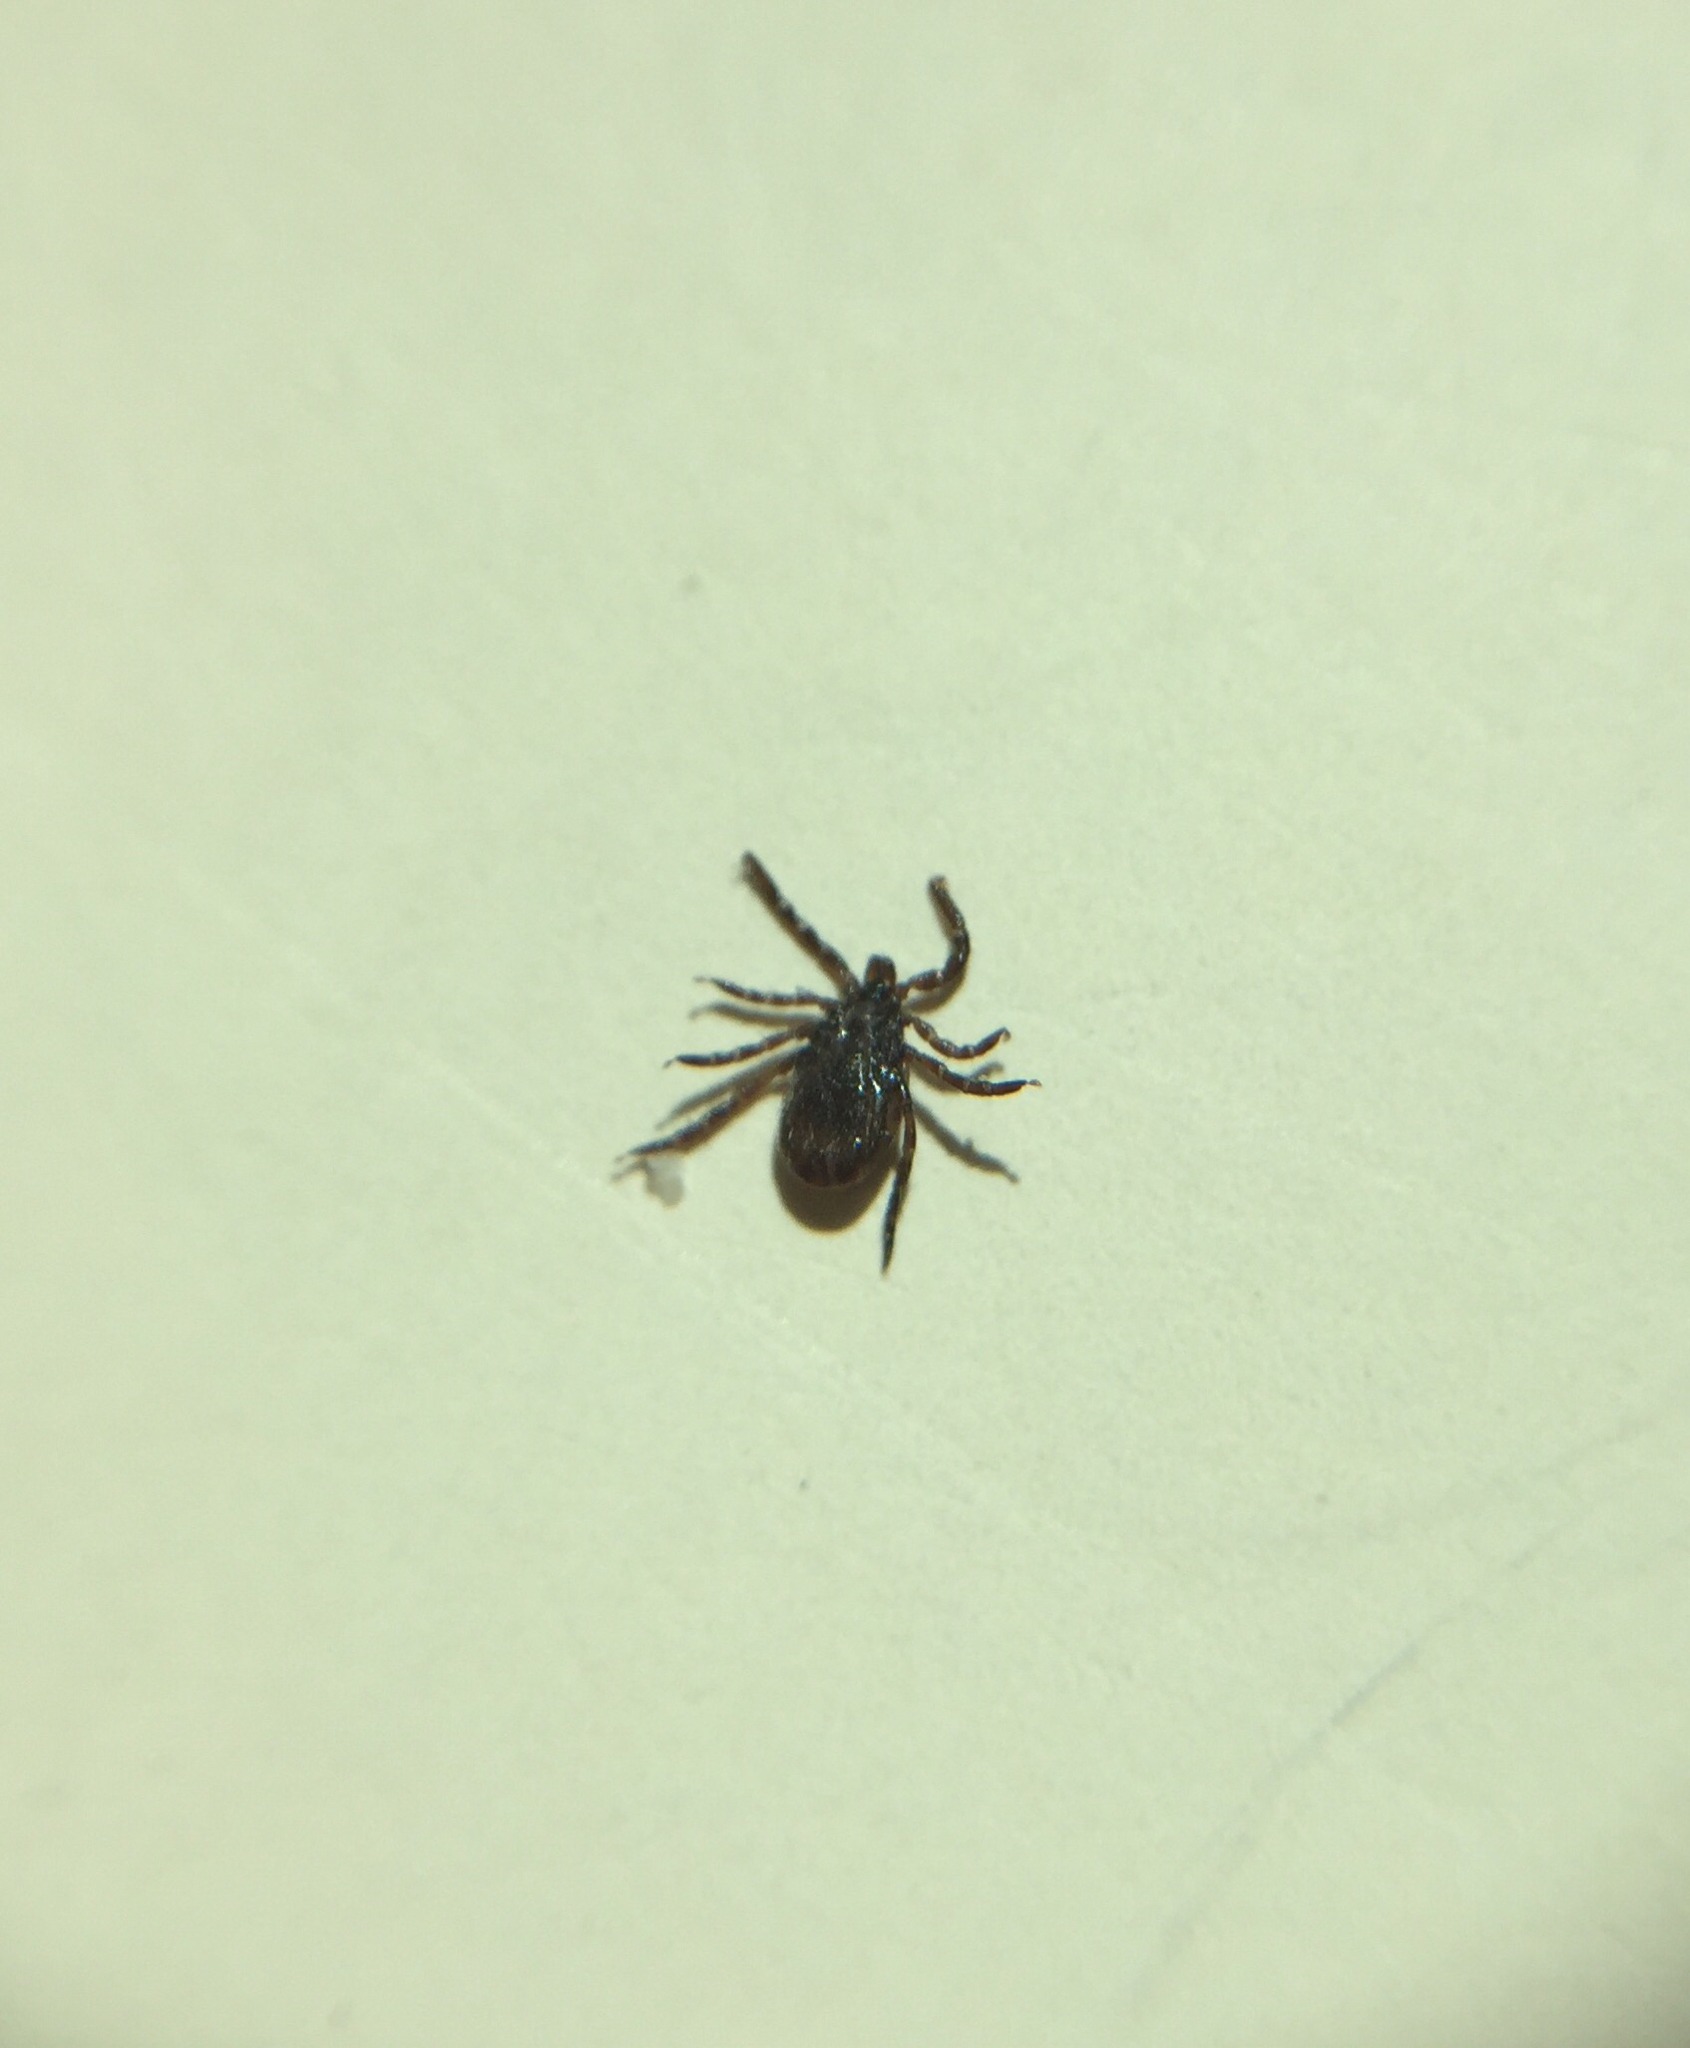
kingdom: Animalia
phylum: Arthropoda
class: Arachnida
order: Ixodida
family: Ixodidae
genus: Ixodes
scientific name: Ixodes scapularis
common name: Black legged tick
